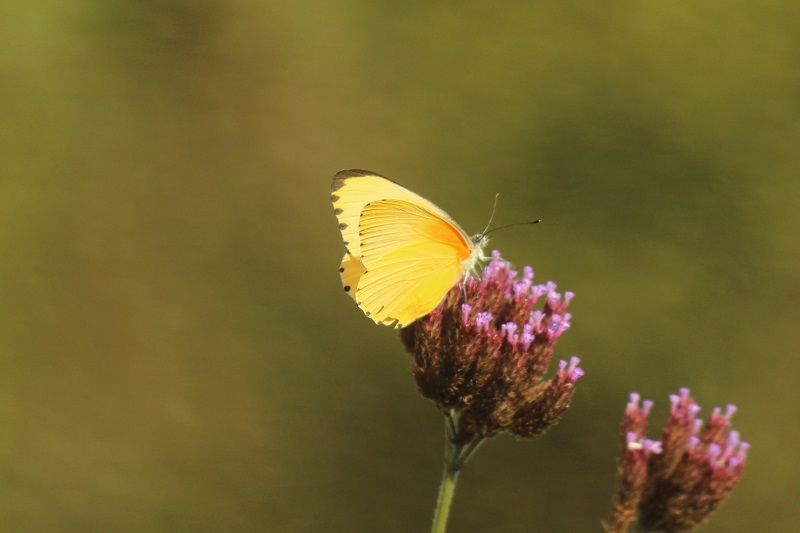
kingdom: Animalia
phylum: Arthropoda
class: Insecta
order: Lepidoptera
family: Pieridae
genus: Mylothris
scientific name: Mylothris agathina
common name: Eastern dotted border
